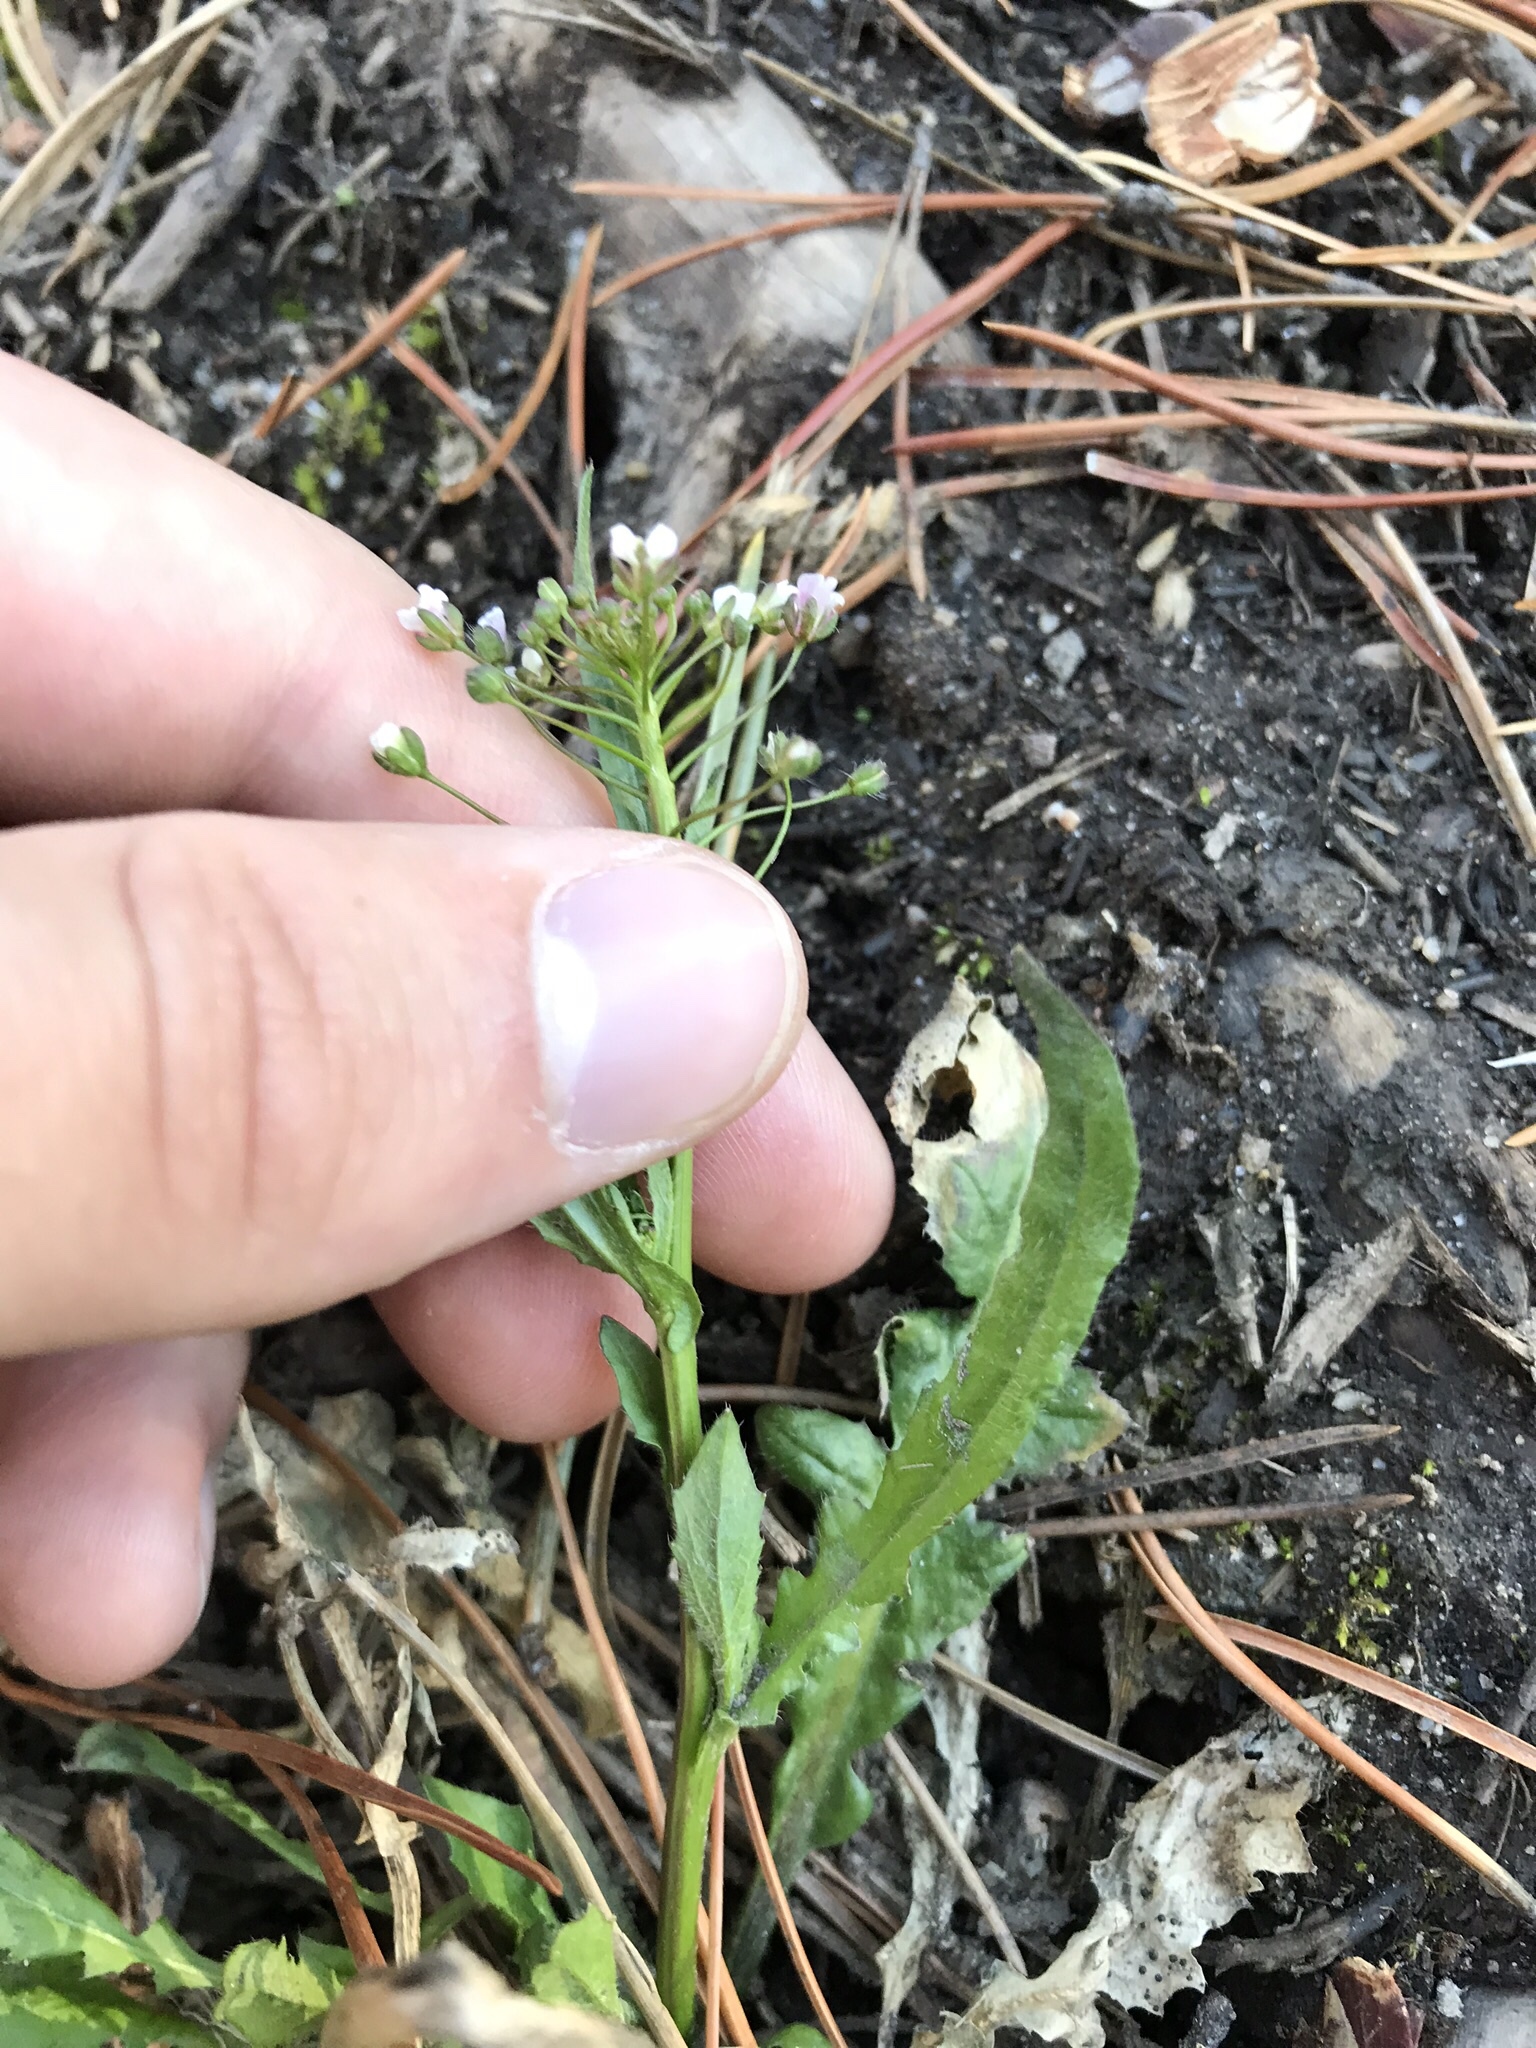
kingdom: Plantae
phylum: Tracheophyta
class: Magnoliopsida
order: Brassicales
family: Brassicaceae
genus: Capsella
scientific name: Capsella bursa-pastoris
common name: Shepherd's purse
